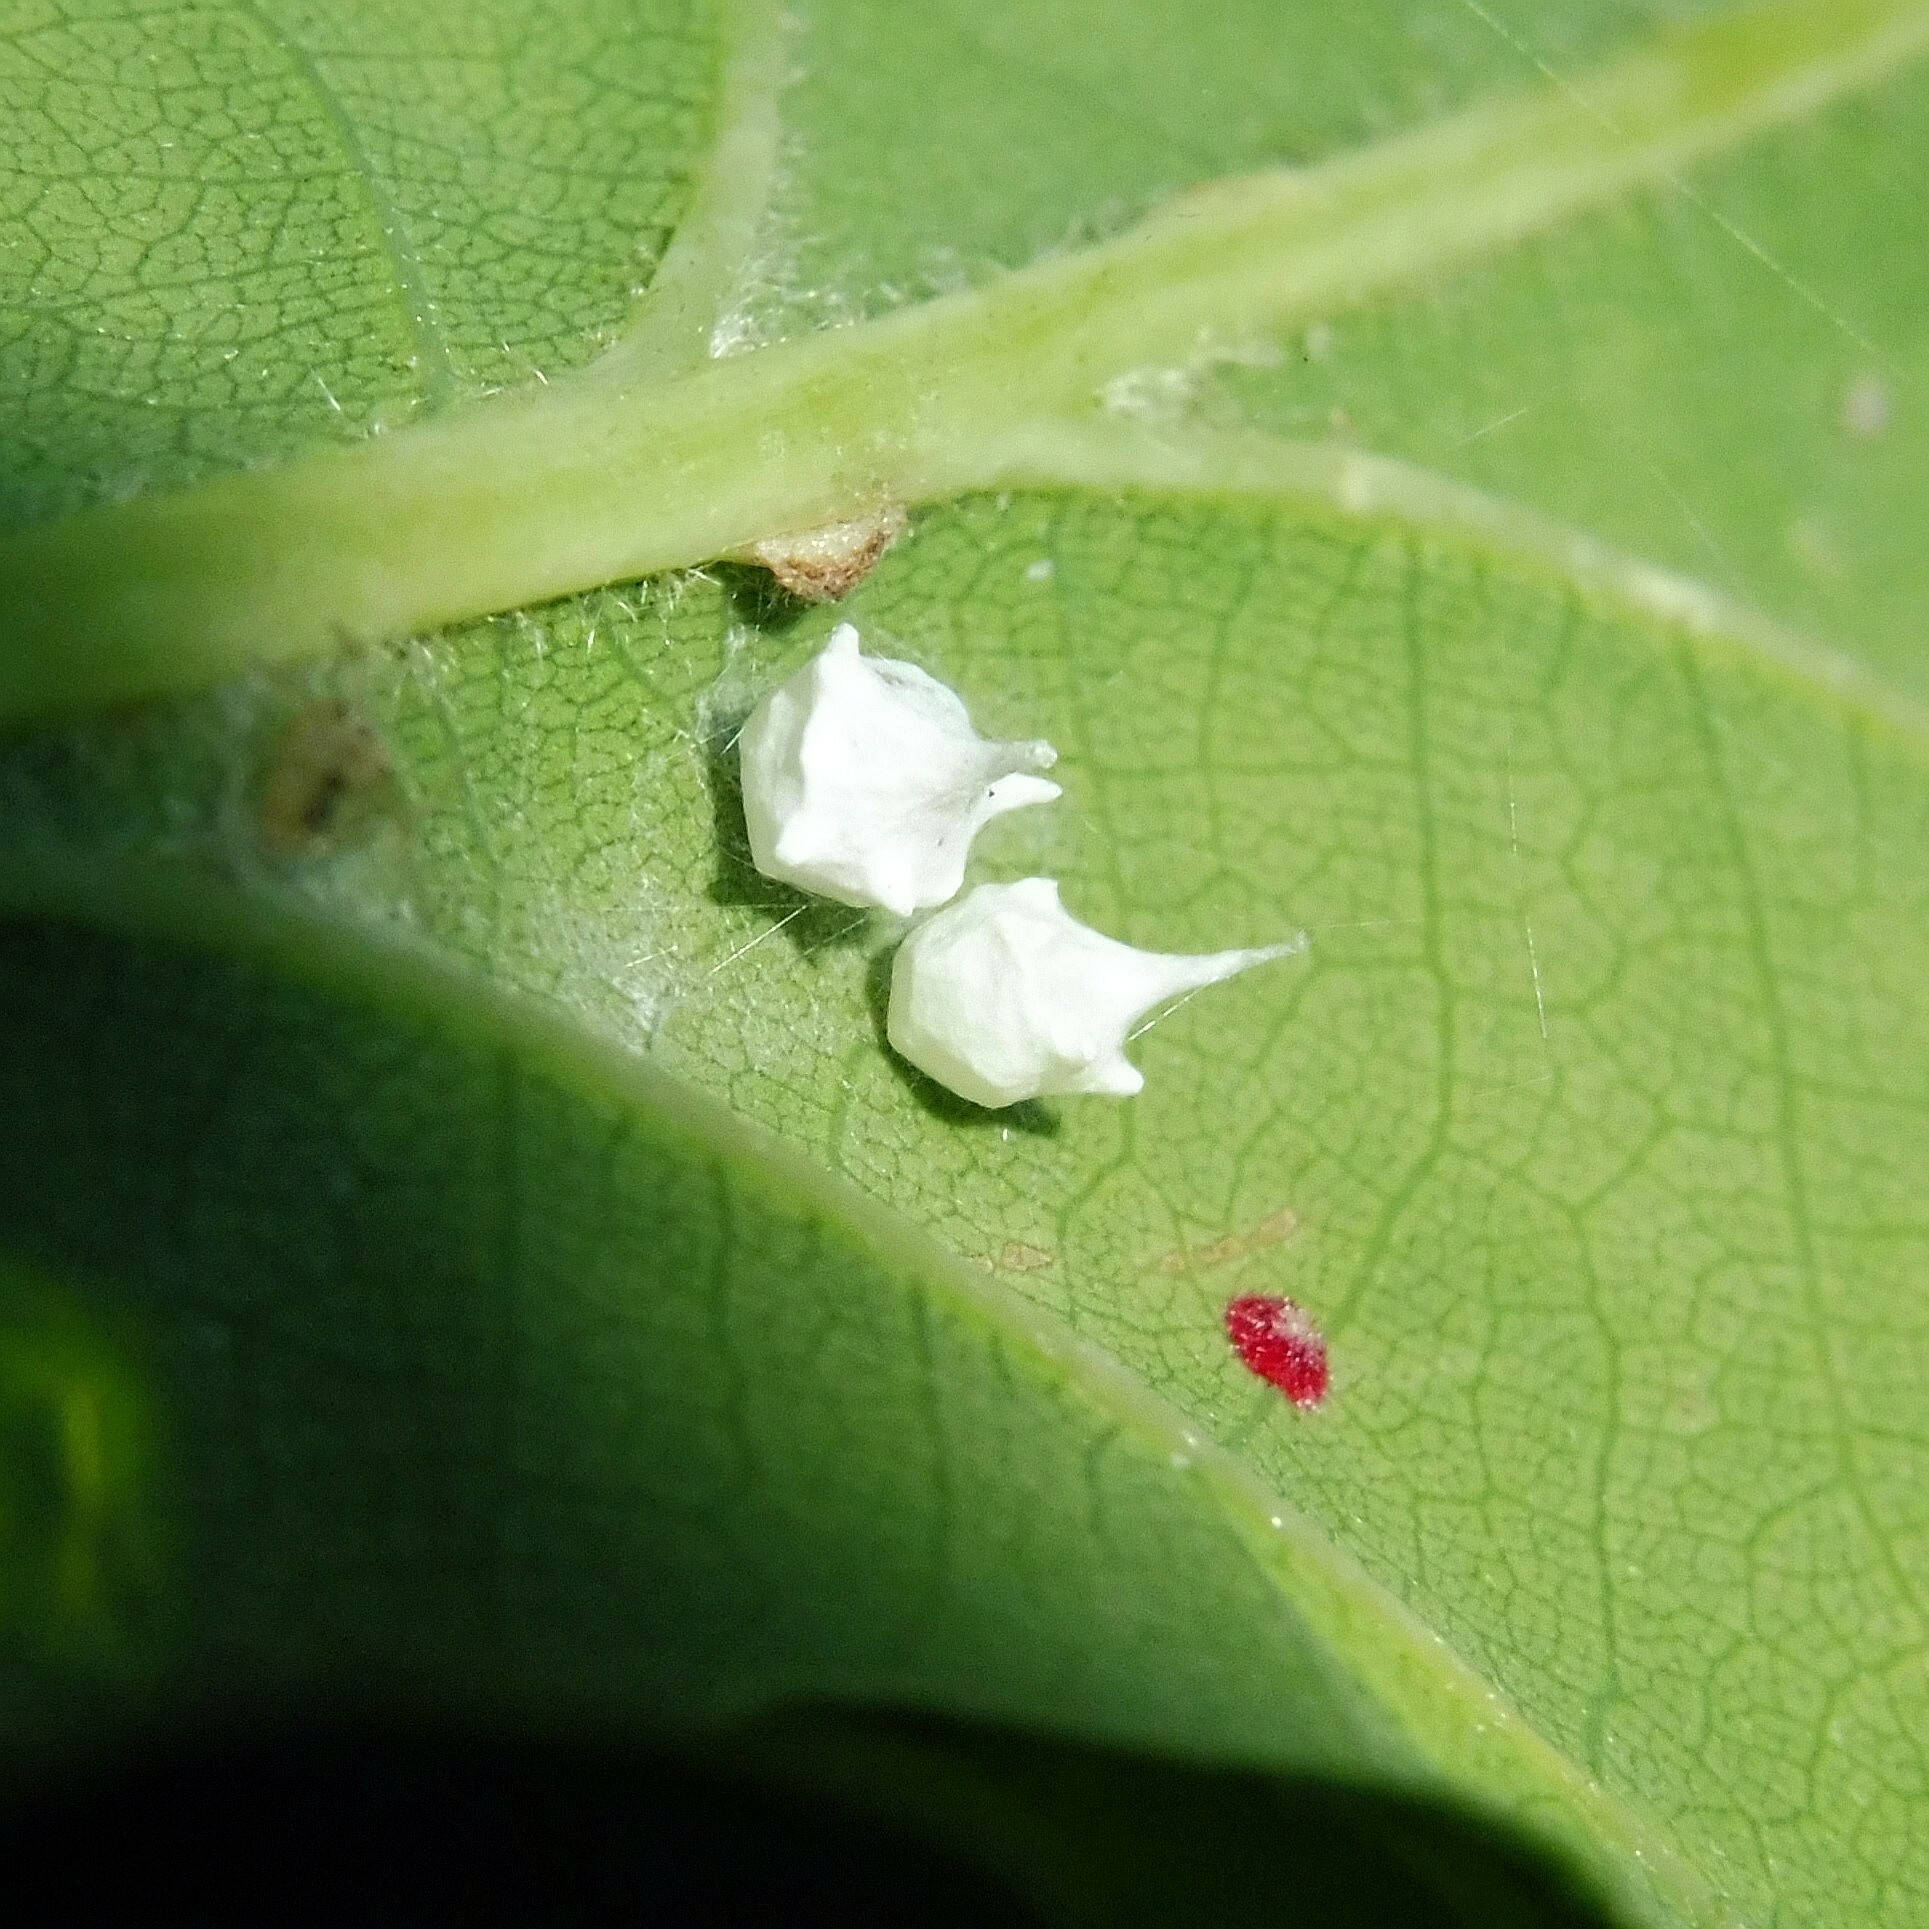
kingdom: Animalia
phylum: Arthropoda
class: Arachnida
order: Araneae
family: Theridiidae
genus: Paidiscura
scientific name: Paidiscura pallens
